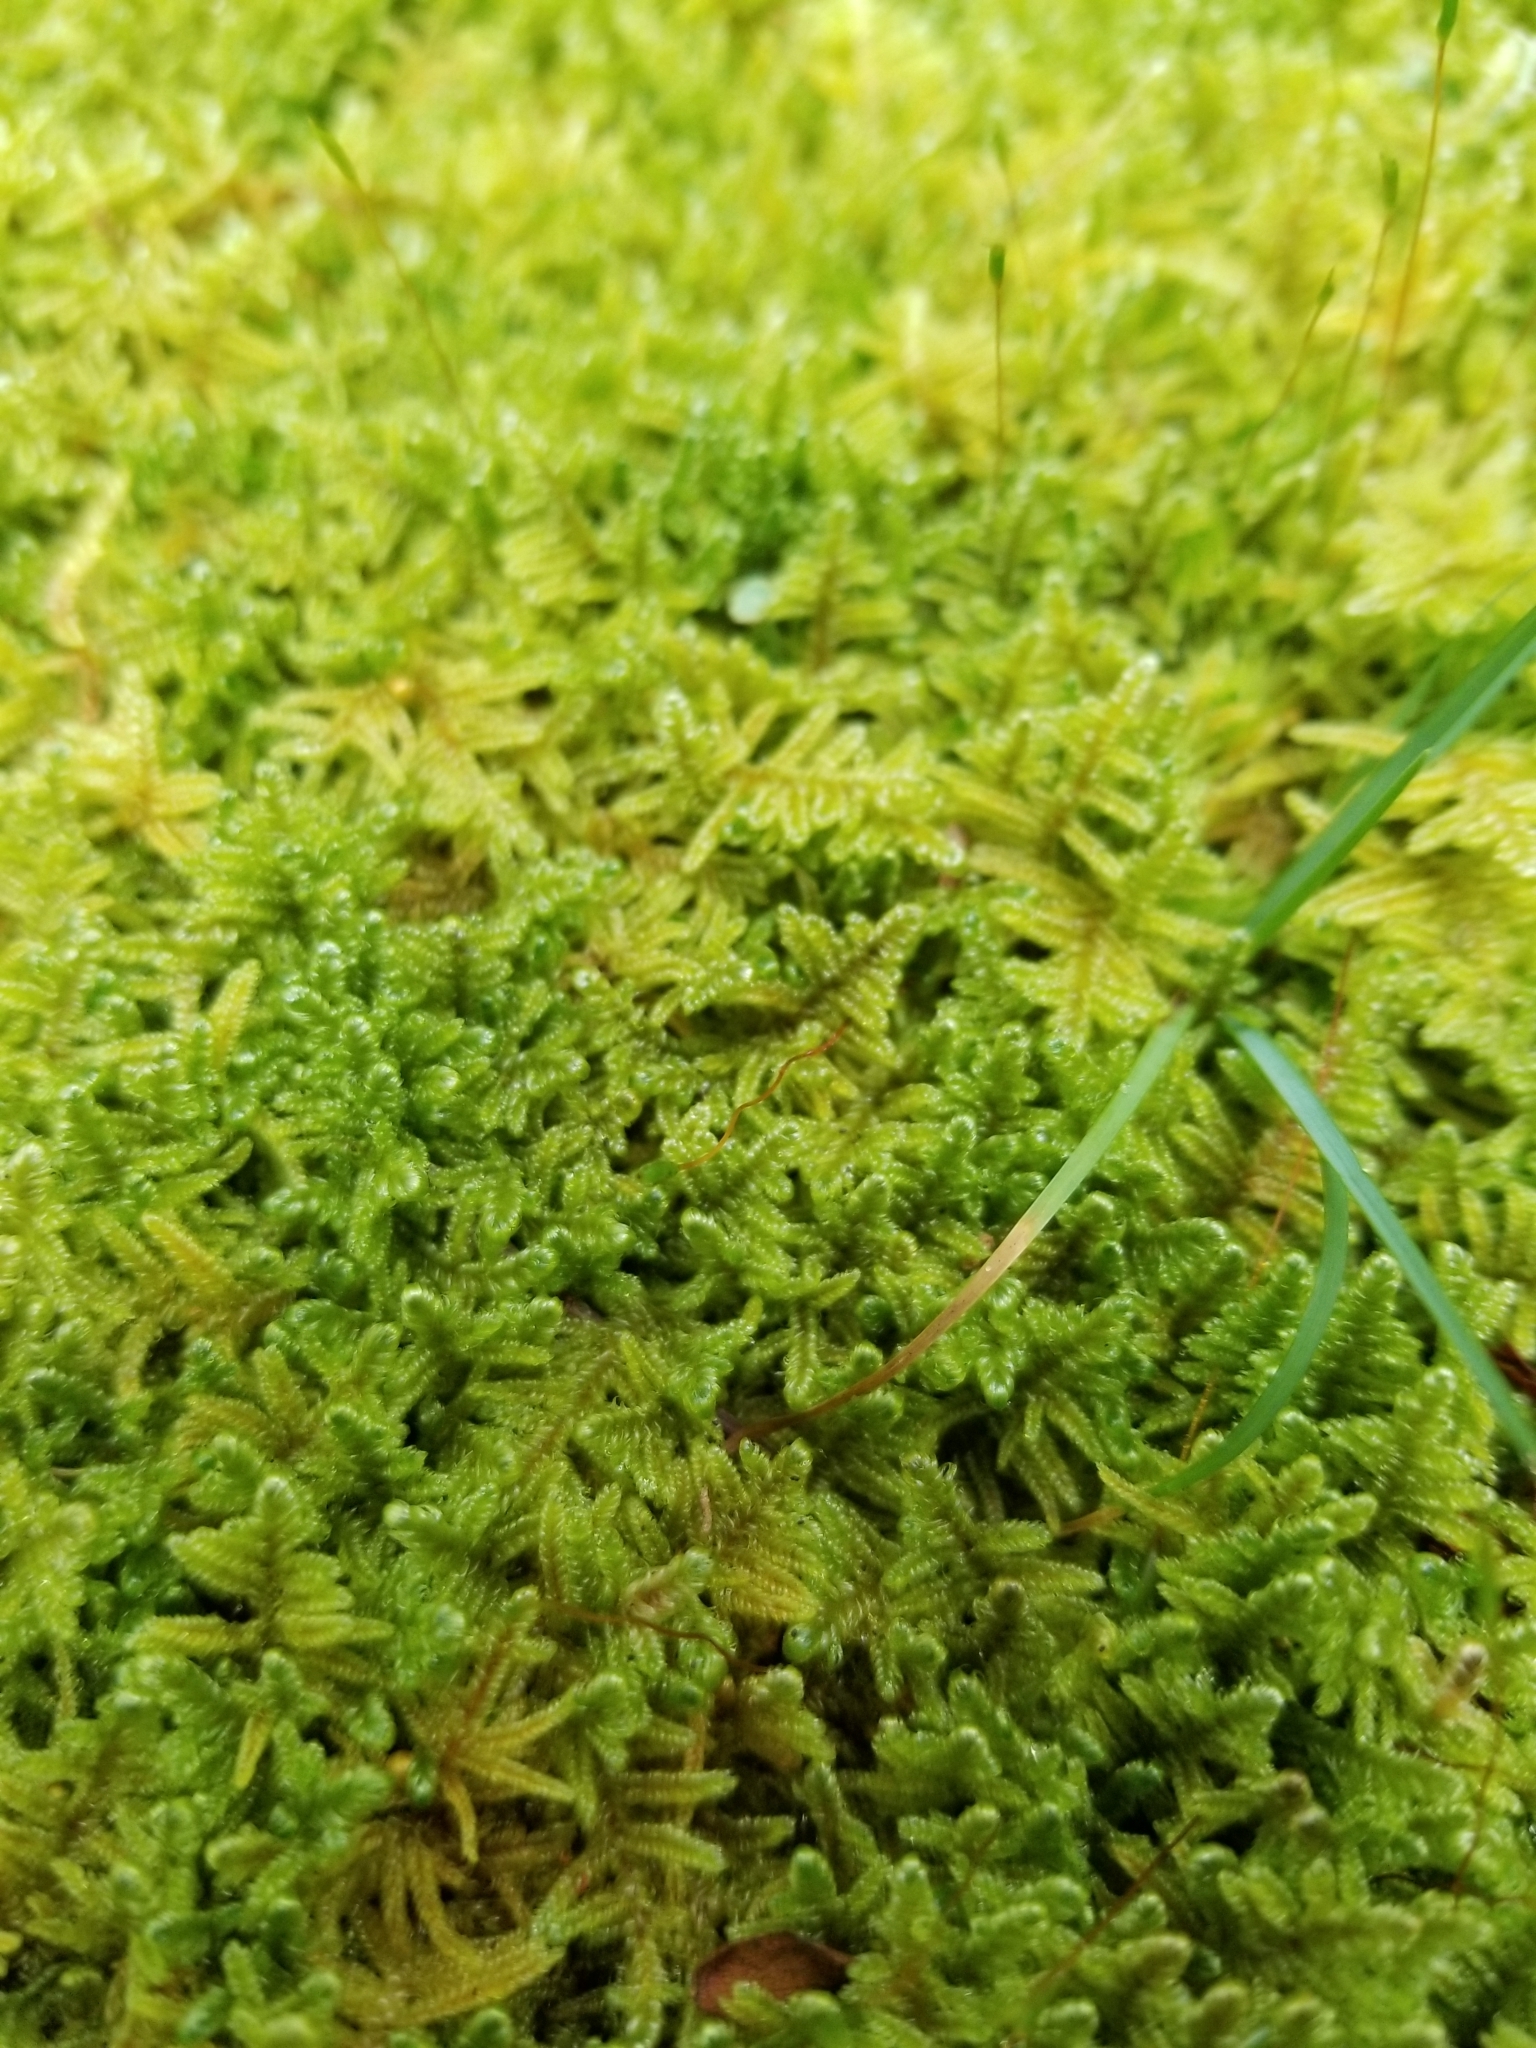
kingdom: Plantae
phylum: Bryophyta
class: Bryopsida
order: Hypnales
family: Callicladiaceae
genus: Callicladium
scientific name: Callicladium imponens
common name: Brocade moss
